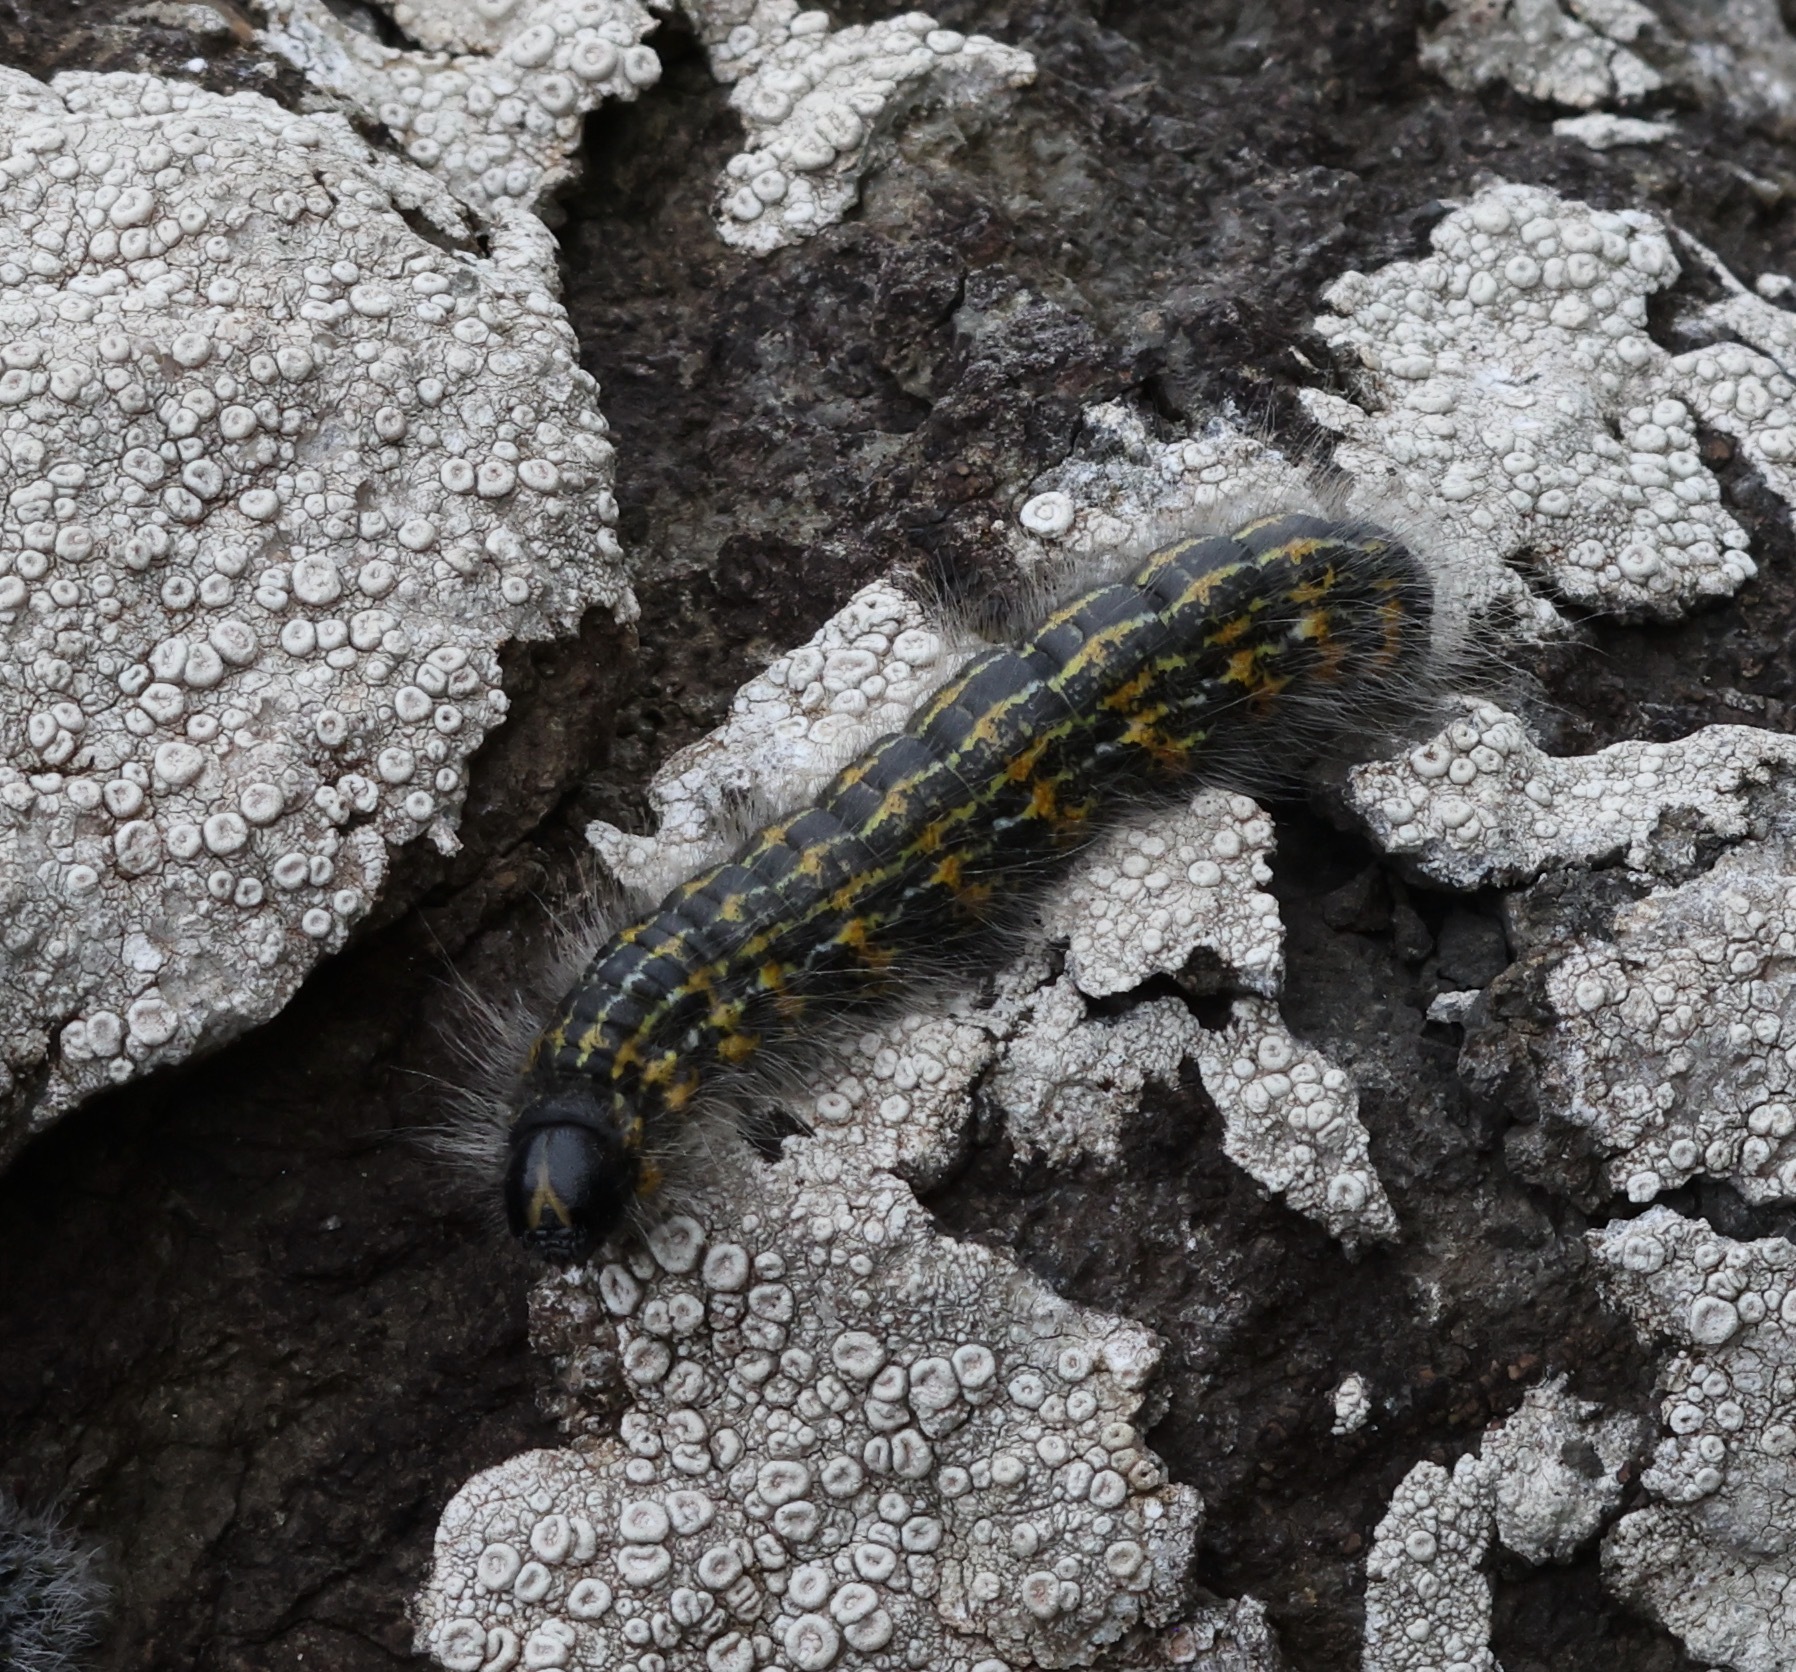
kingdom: Animalia
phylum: Arthropoda
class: Insecta
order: Lepidoptera
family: Notodontidae
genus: Phalera
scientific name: Phalera bucephala
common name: Buff-tip
